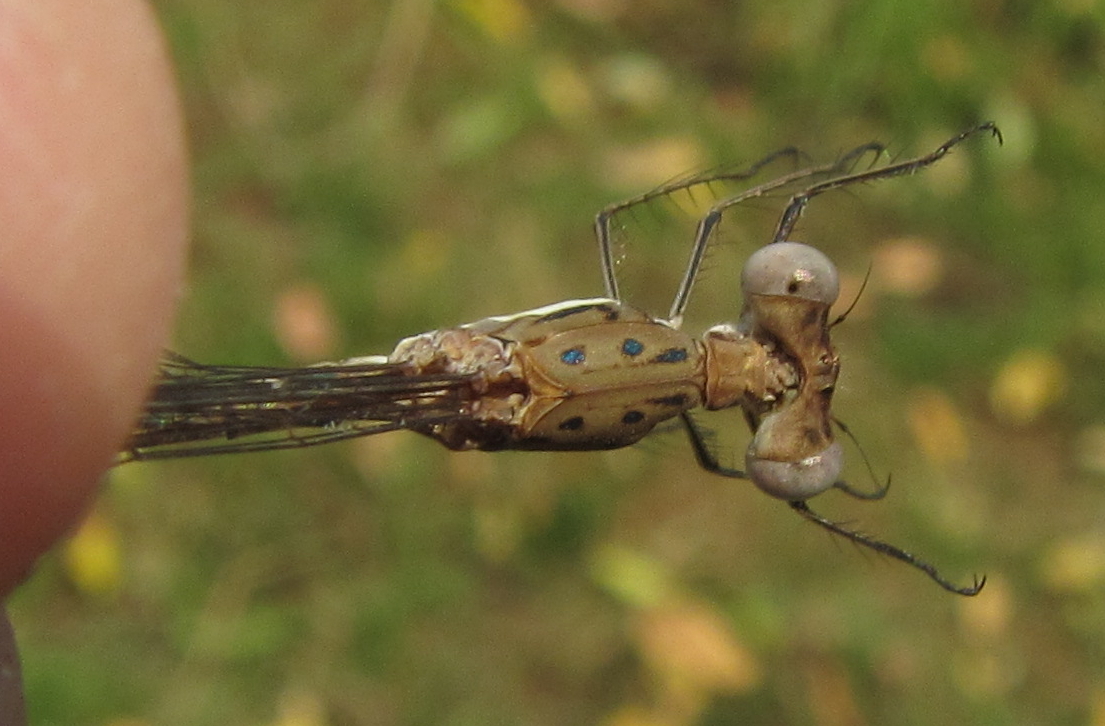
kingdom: Animalia
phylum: Arthropoda
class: Insecta
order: Odonata
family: Lestidae
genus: Lestes
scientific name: Lestes pinheyi
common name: Pinhey's spreadwing
